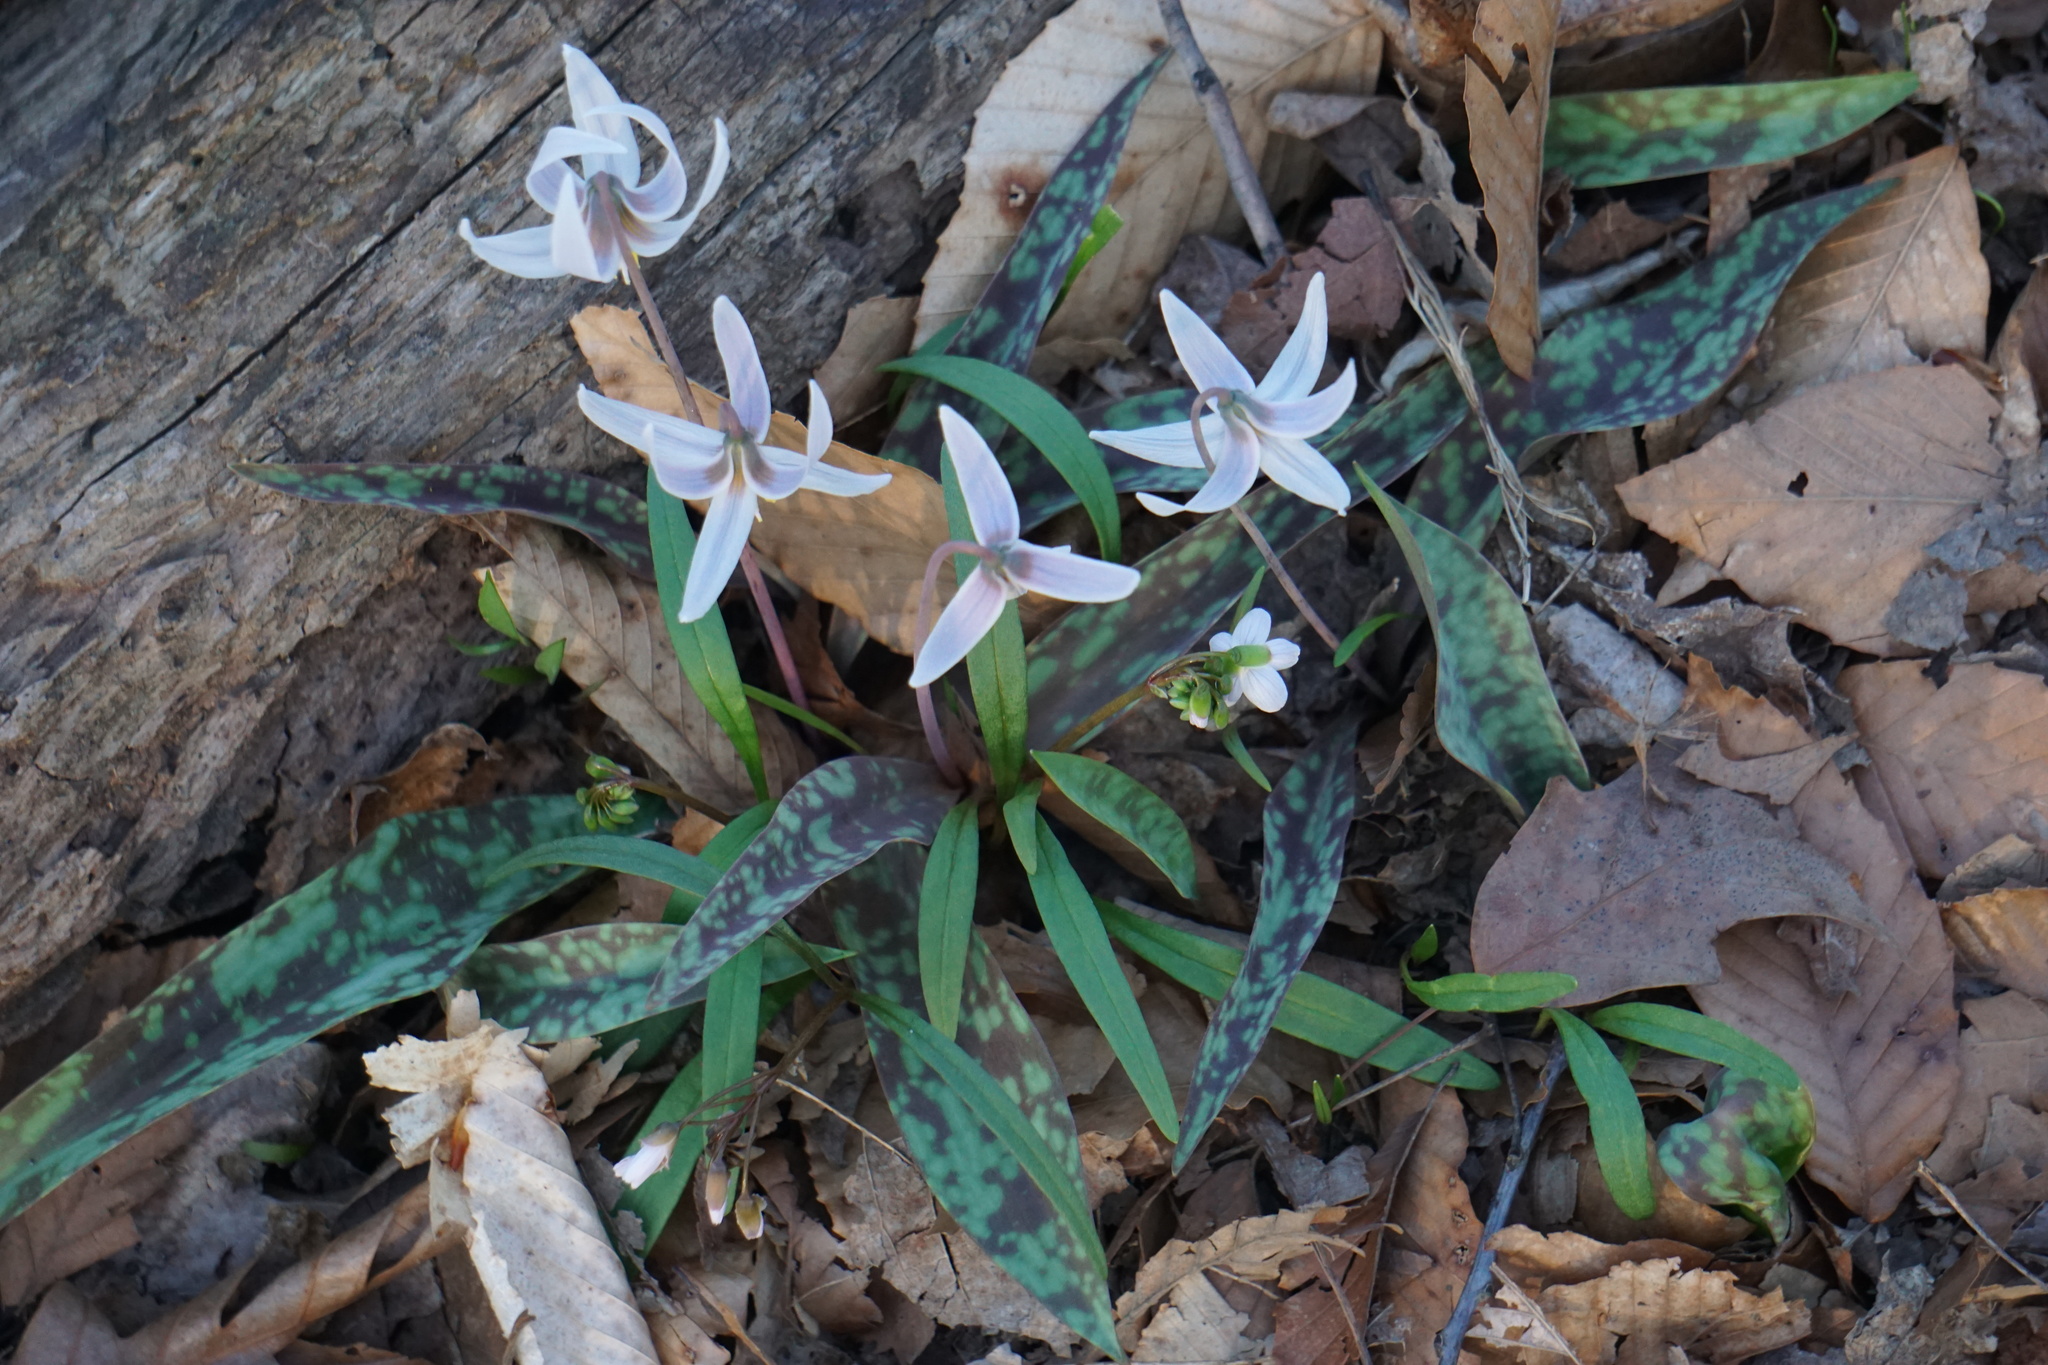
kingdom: Plantae
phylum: Tracheophyta
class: Liliopsida
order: Liliales
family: Liliaceae
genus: Erythronium
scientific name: Erythronium albidum
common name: White trout-lily
